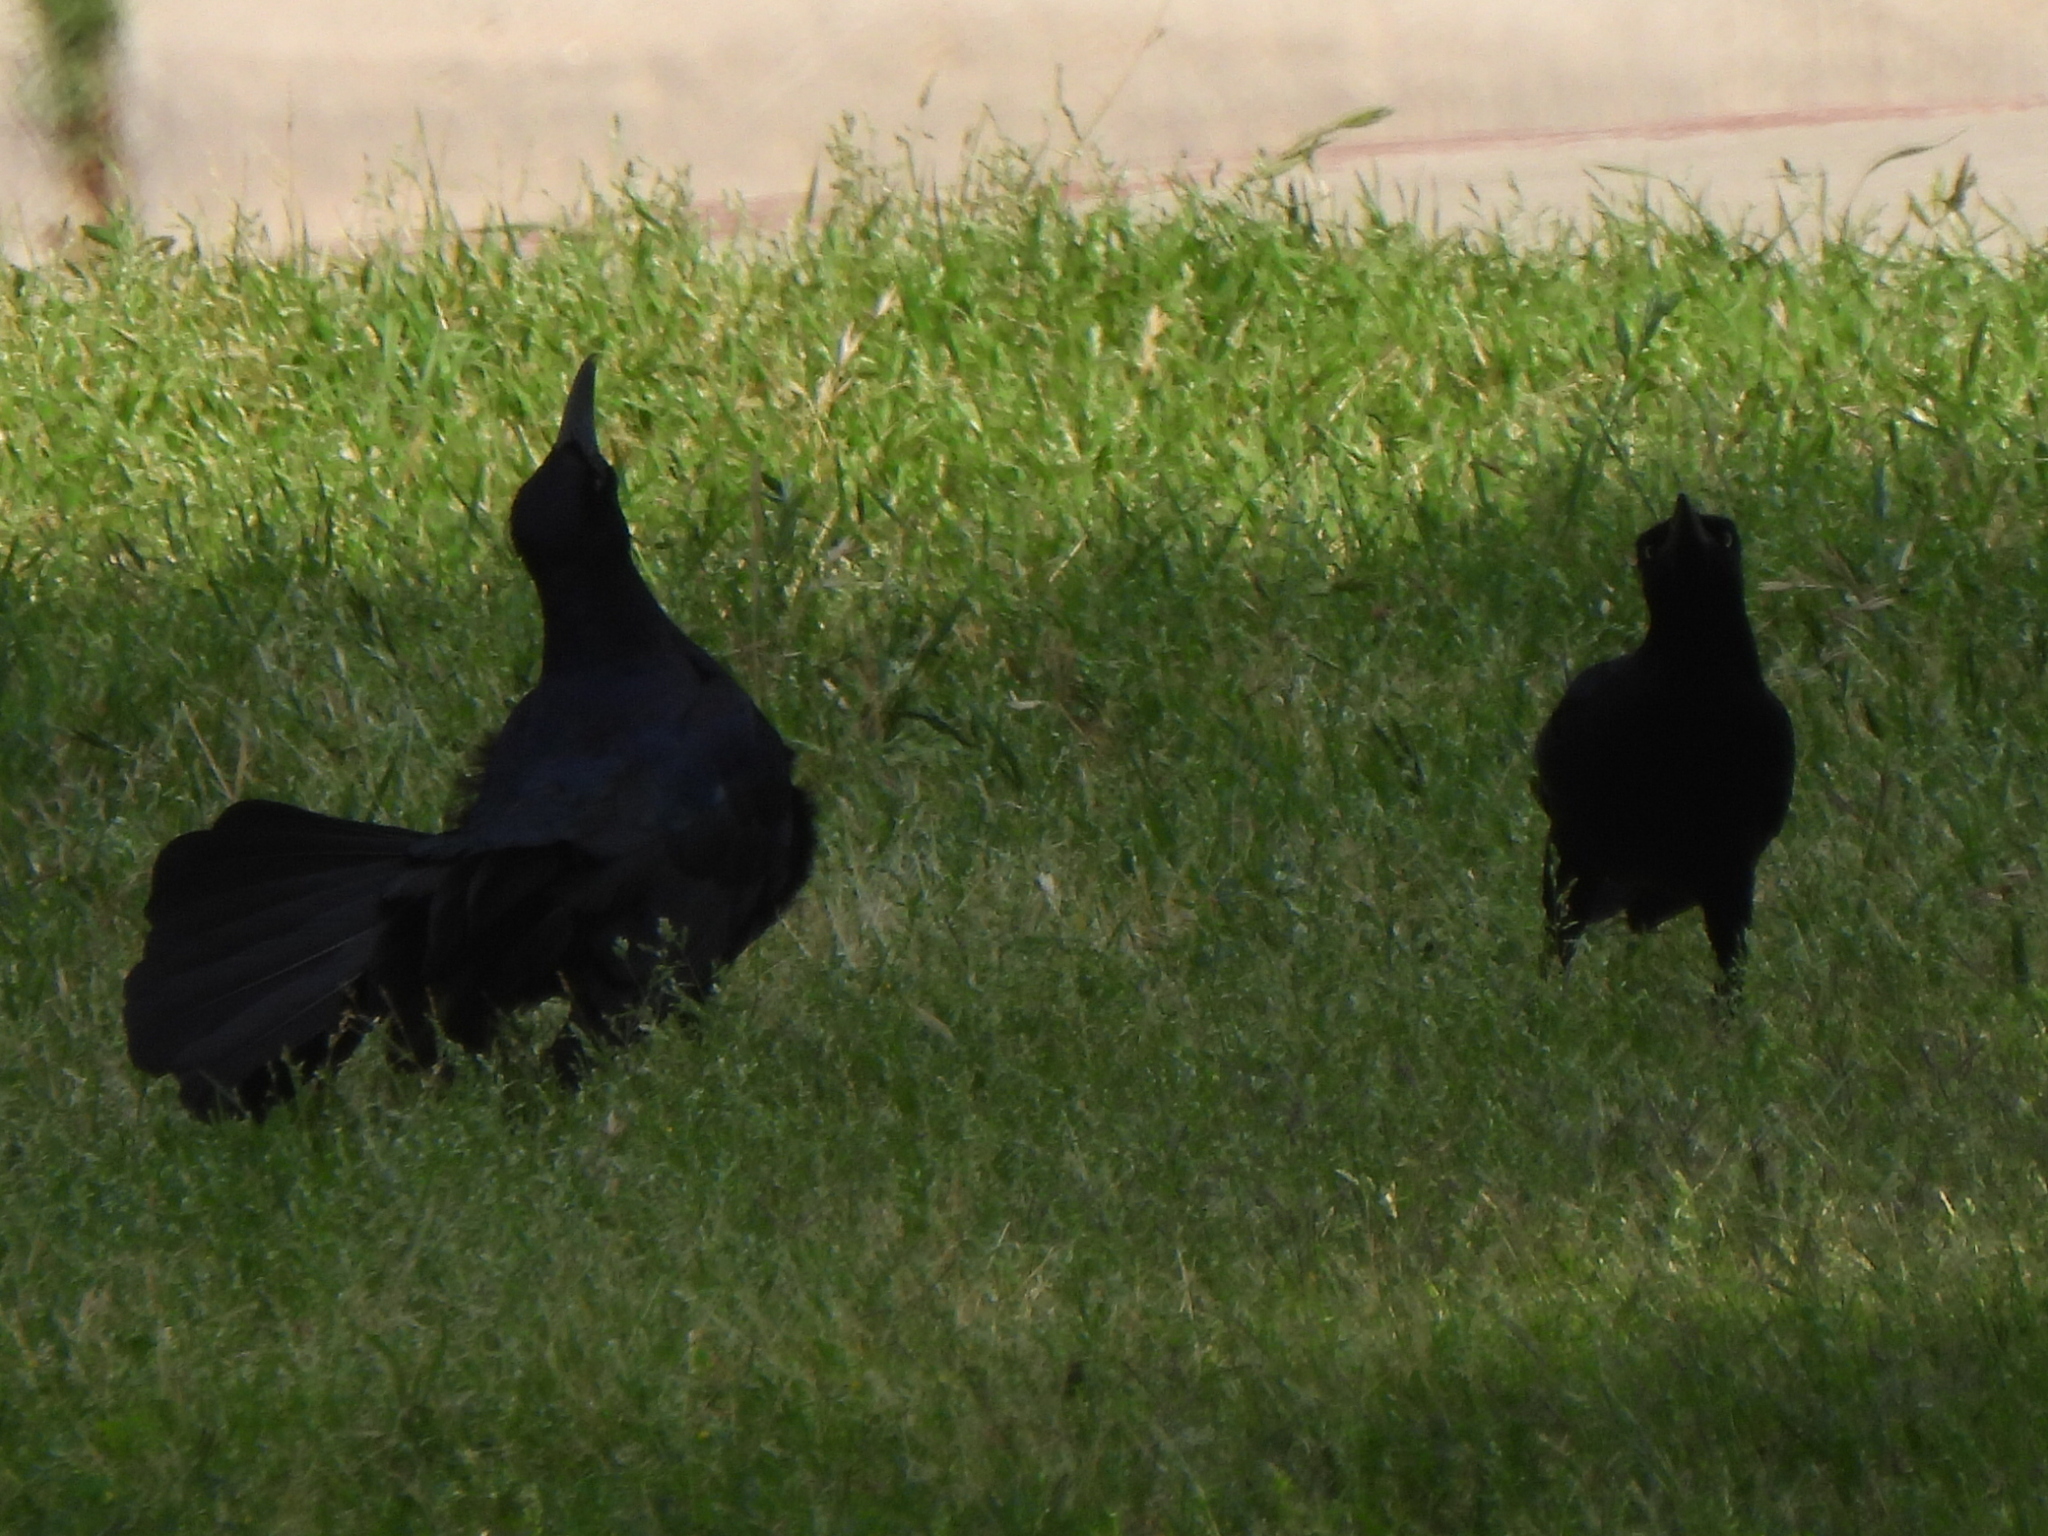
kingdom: Animalia
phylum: Chordata
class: Aves
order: Passeriformes
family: Icteridae
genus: Quiscalus
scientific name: Quiscalus mexicanus
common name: Great-tailed grackle
